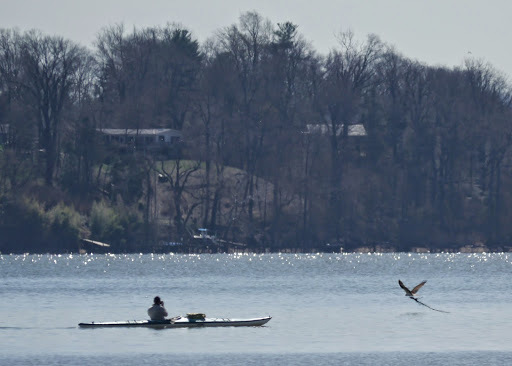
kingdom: Animalia
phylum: Chordata
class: Aves
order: Accipitriformes
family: Pandionidae
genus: Pandion
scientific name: Pandion haliaetus
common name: Osprey
